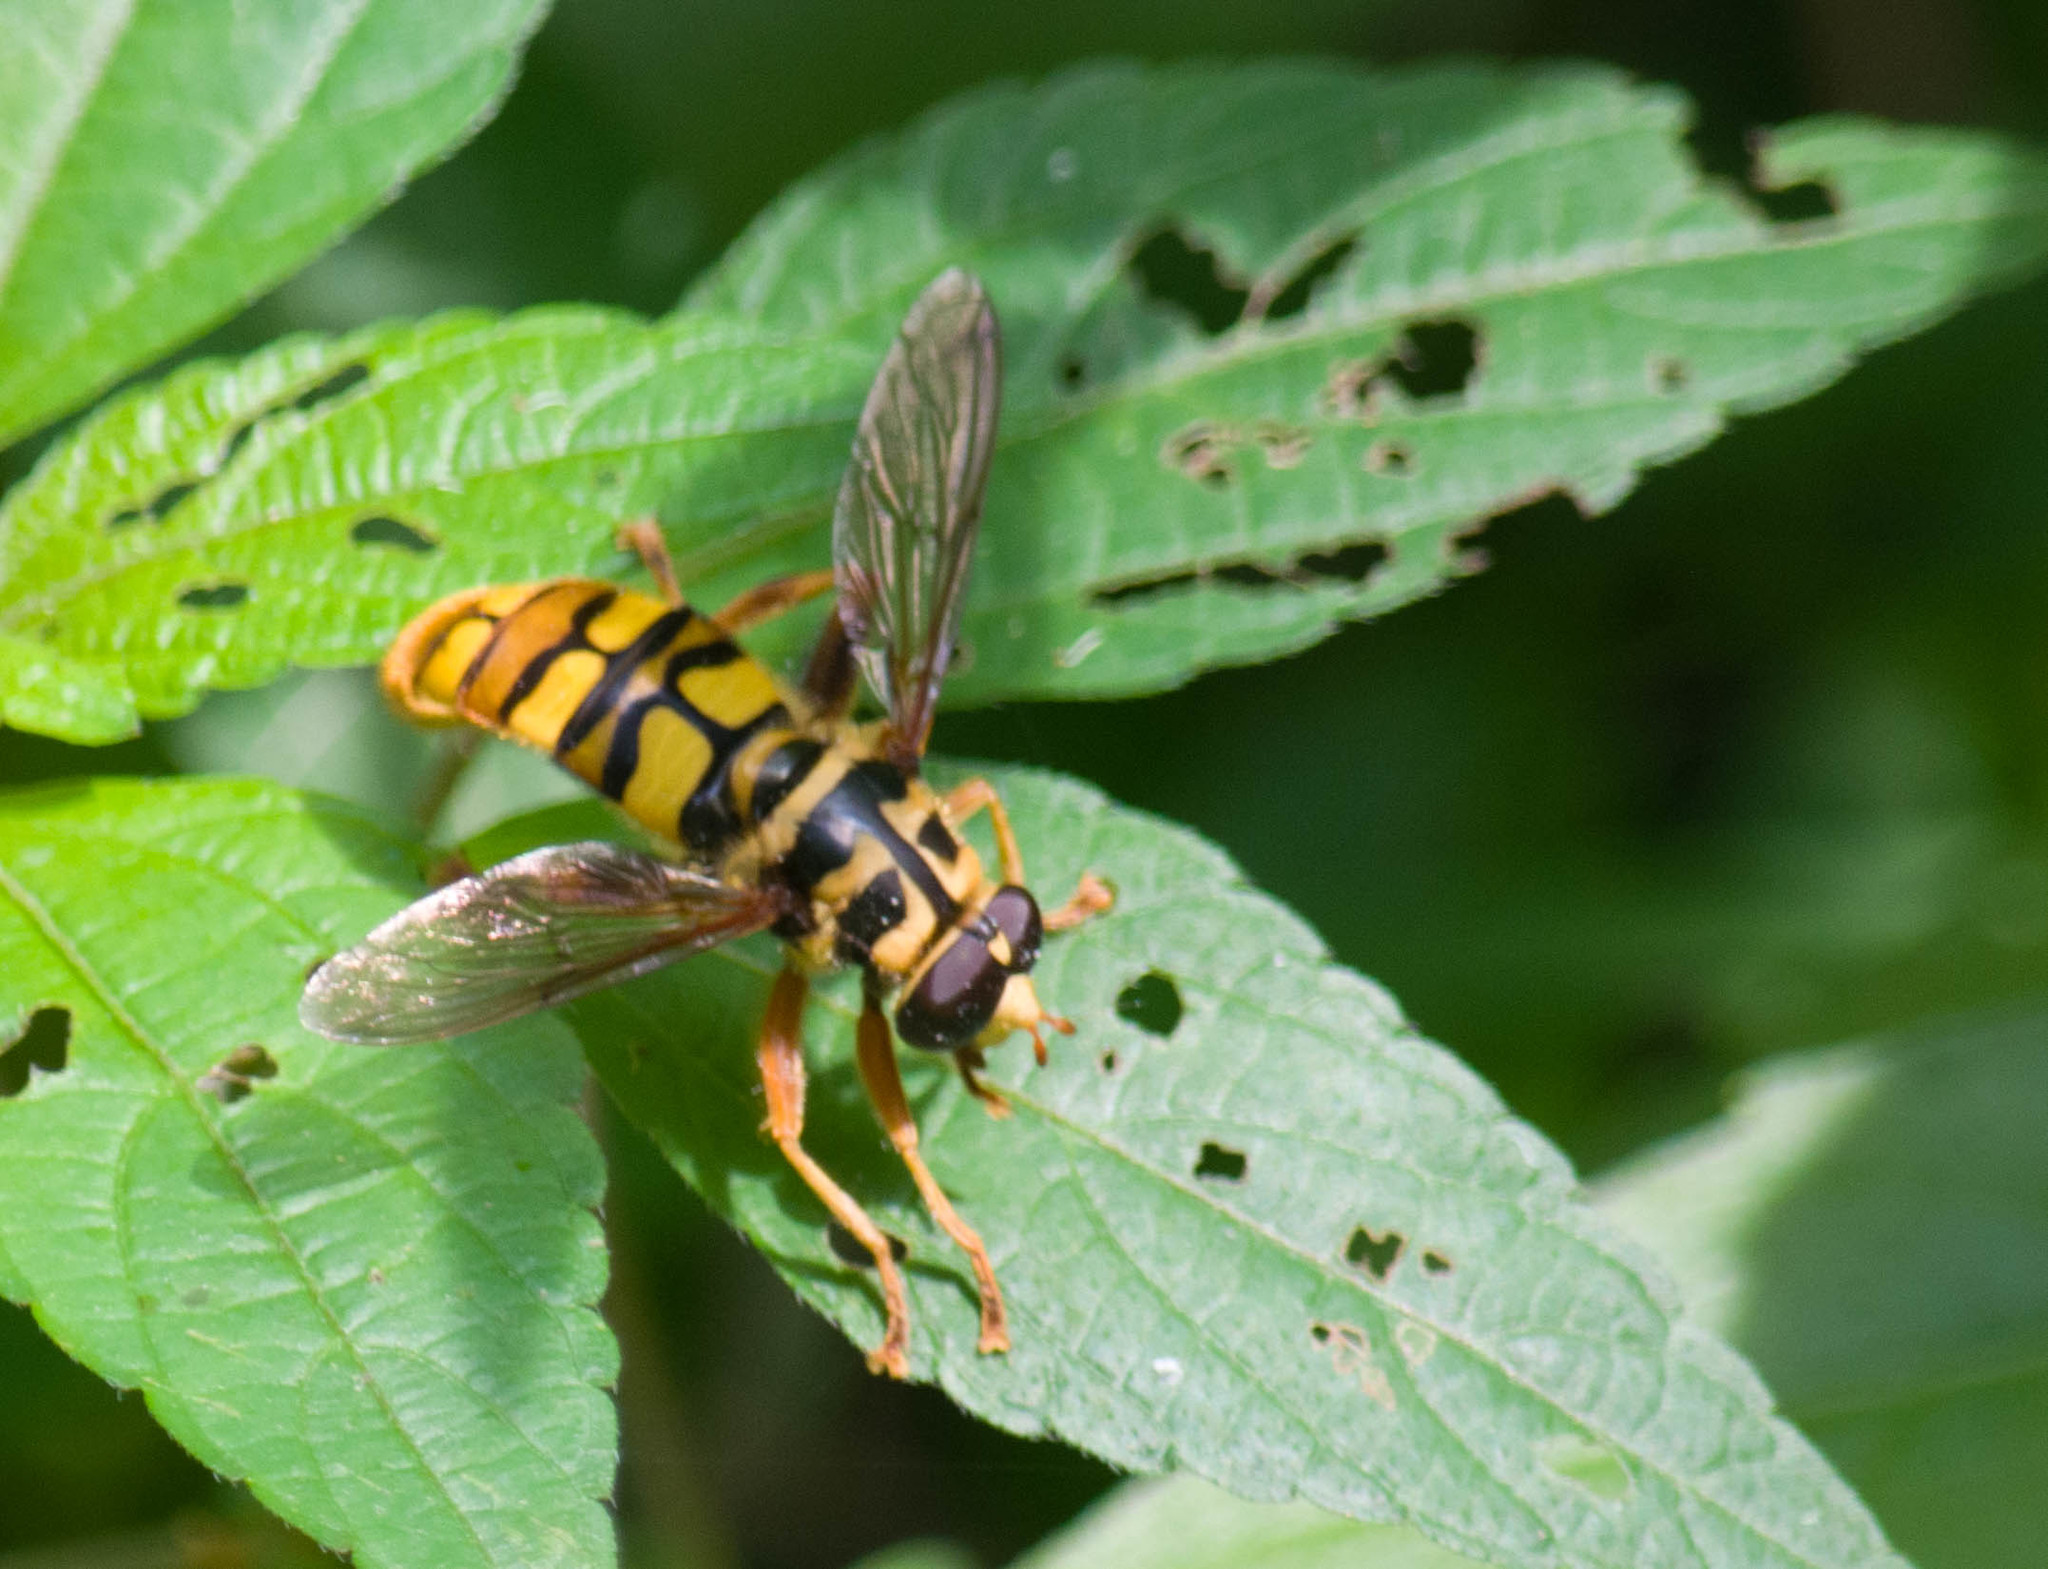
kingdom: Animalia
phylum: Arthropoda
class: Insecta
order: Diptera
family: Syrphidae
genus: Milesia
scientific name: Milesia virginiensis
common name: Virginia giant
